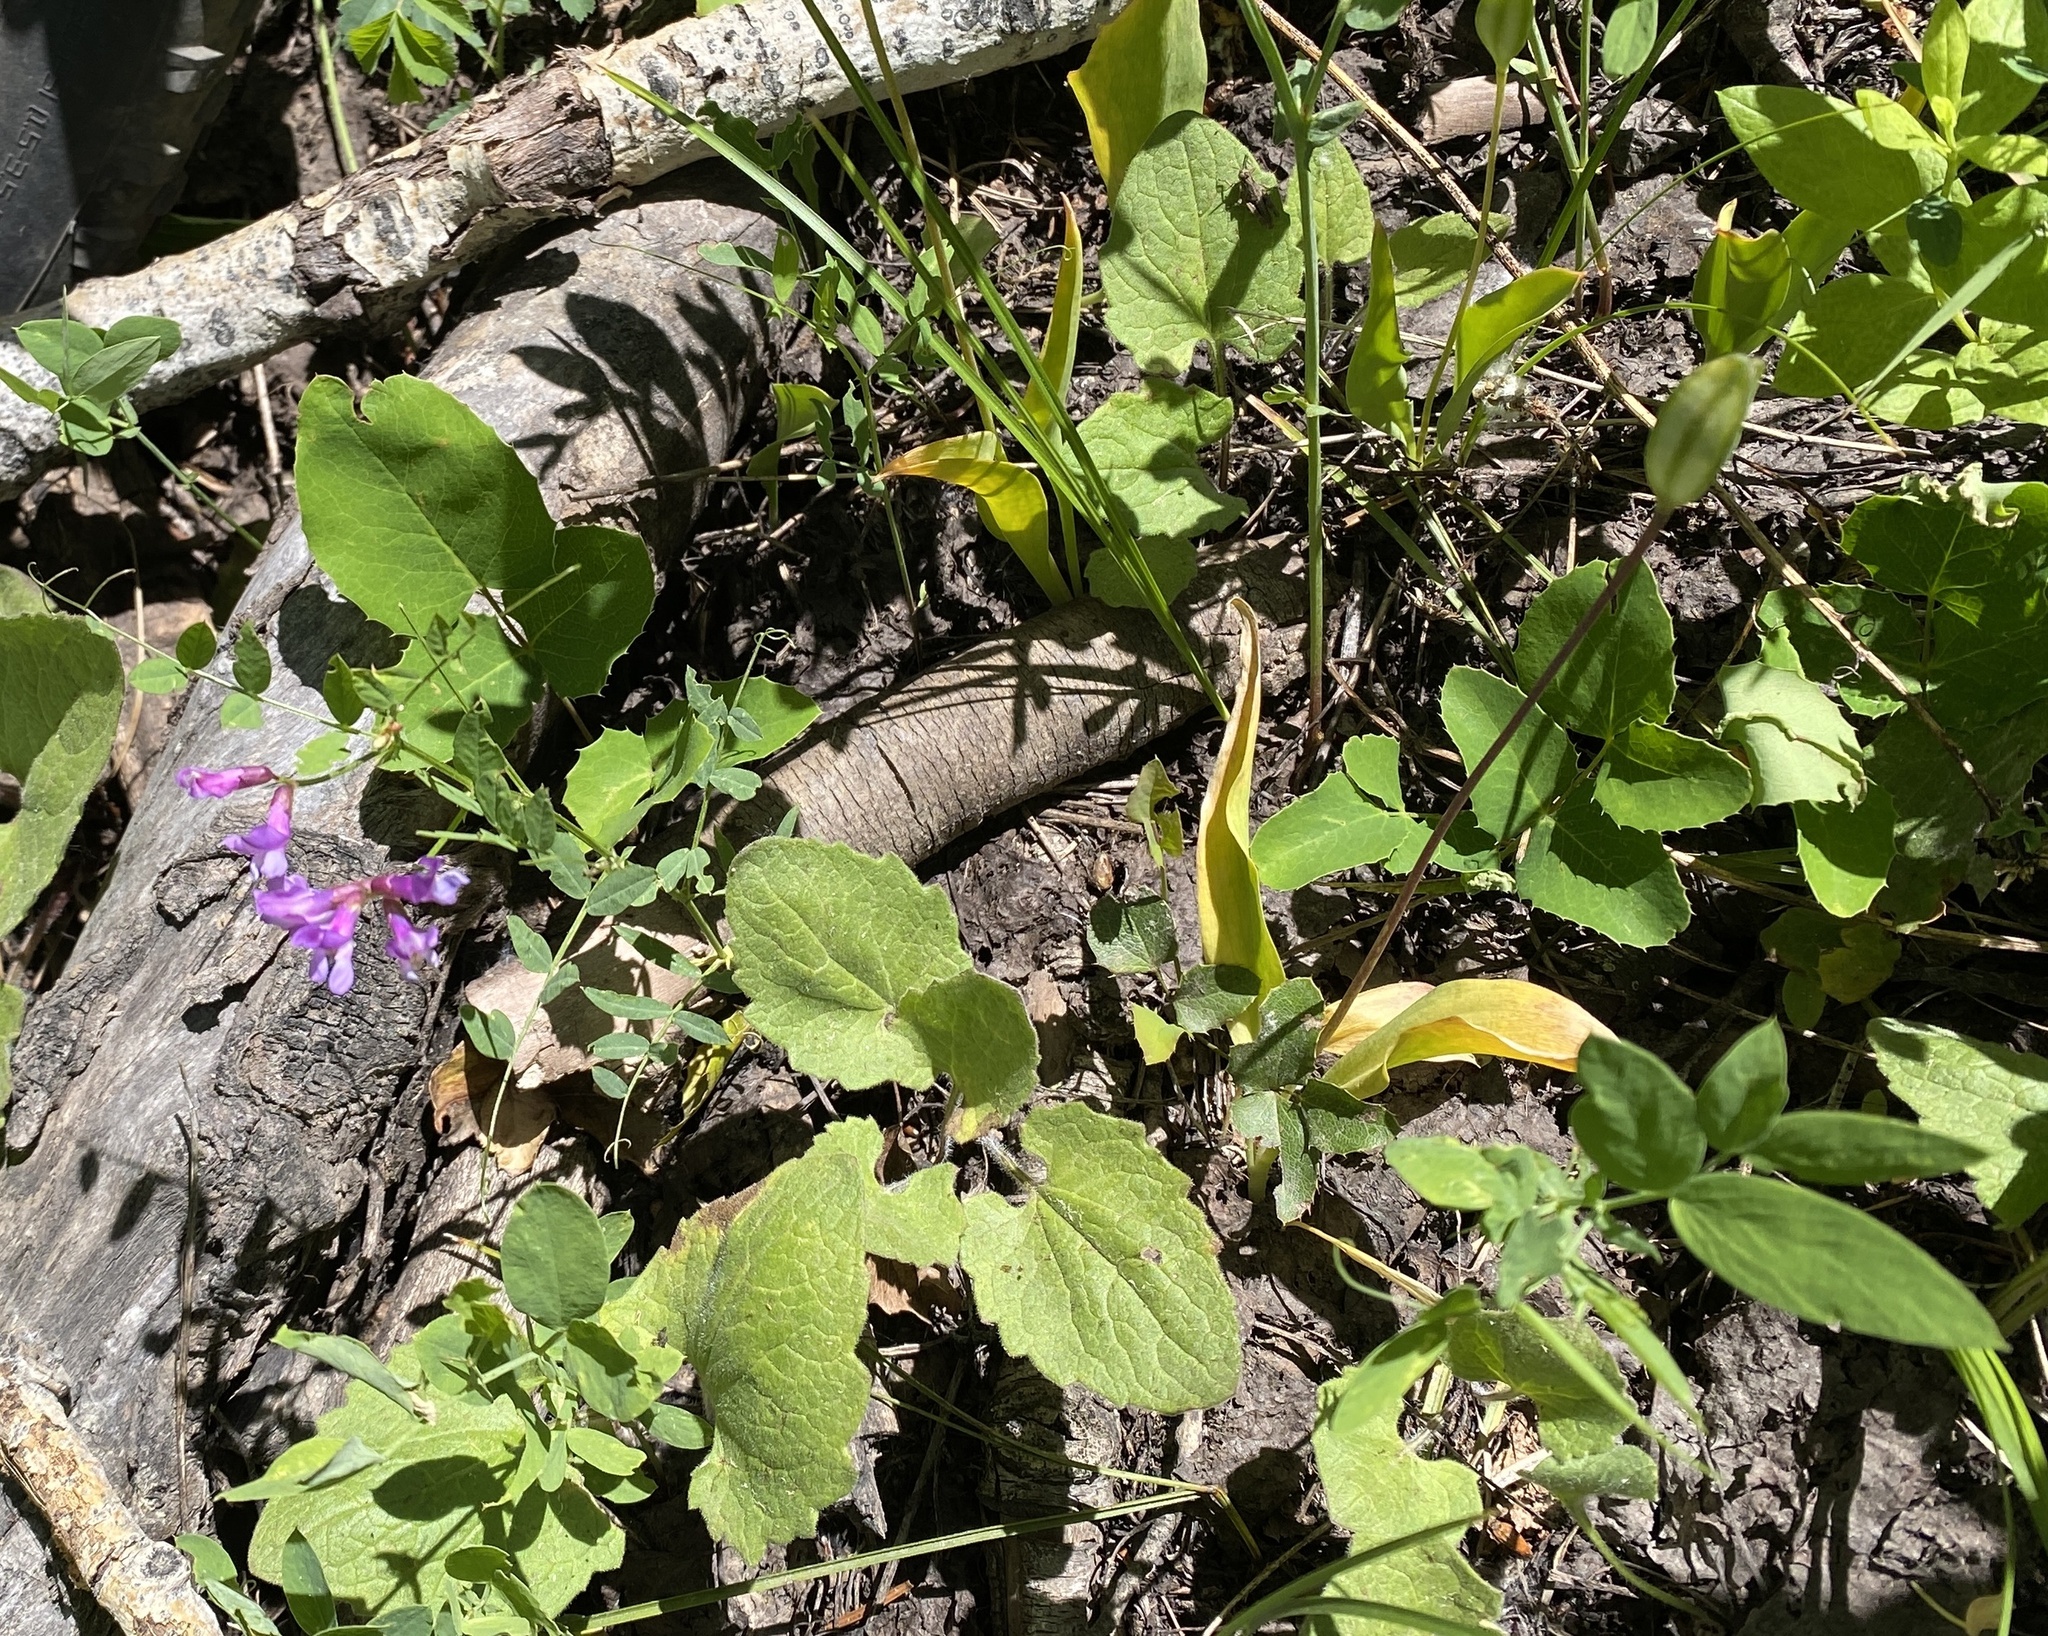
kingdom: Plantae
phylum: Tracheophyta
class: Magnoliopsida
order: Fabales
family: Fabaceae
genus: Vicia
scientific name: Vicia americana
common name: American vetch
